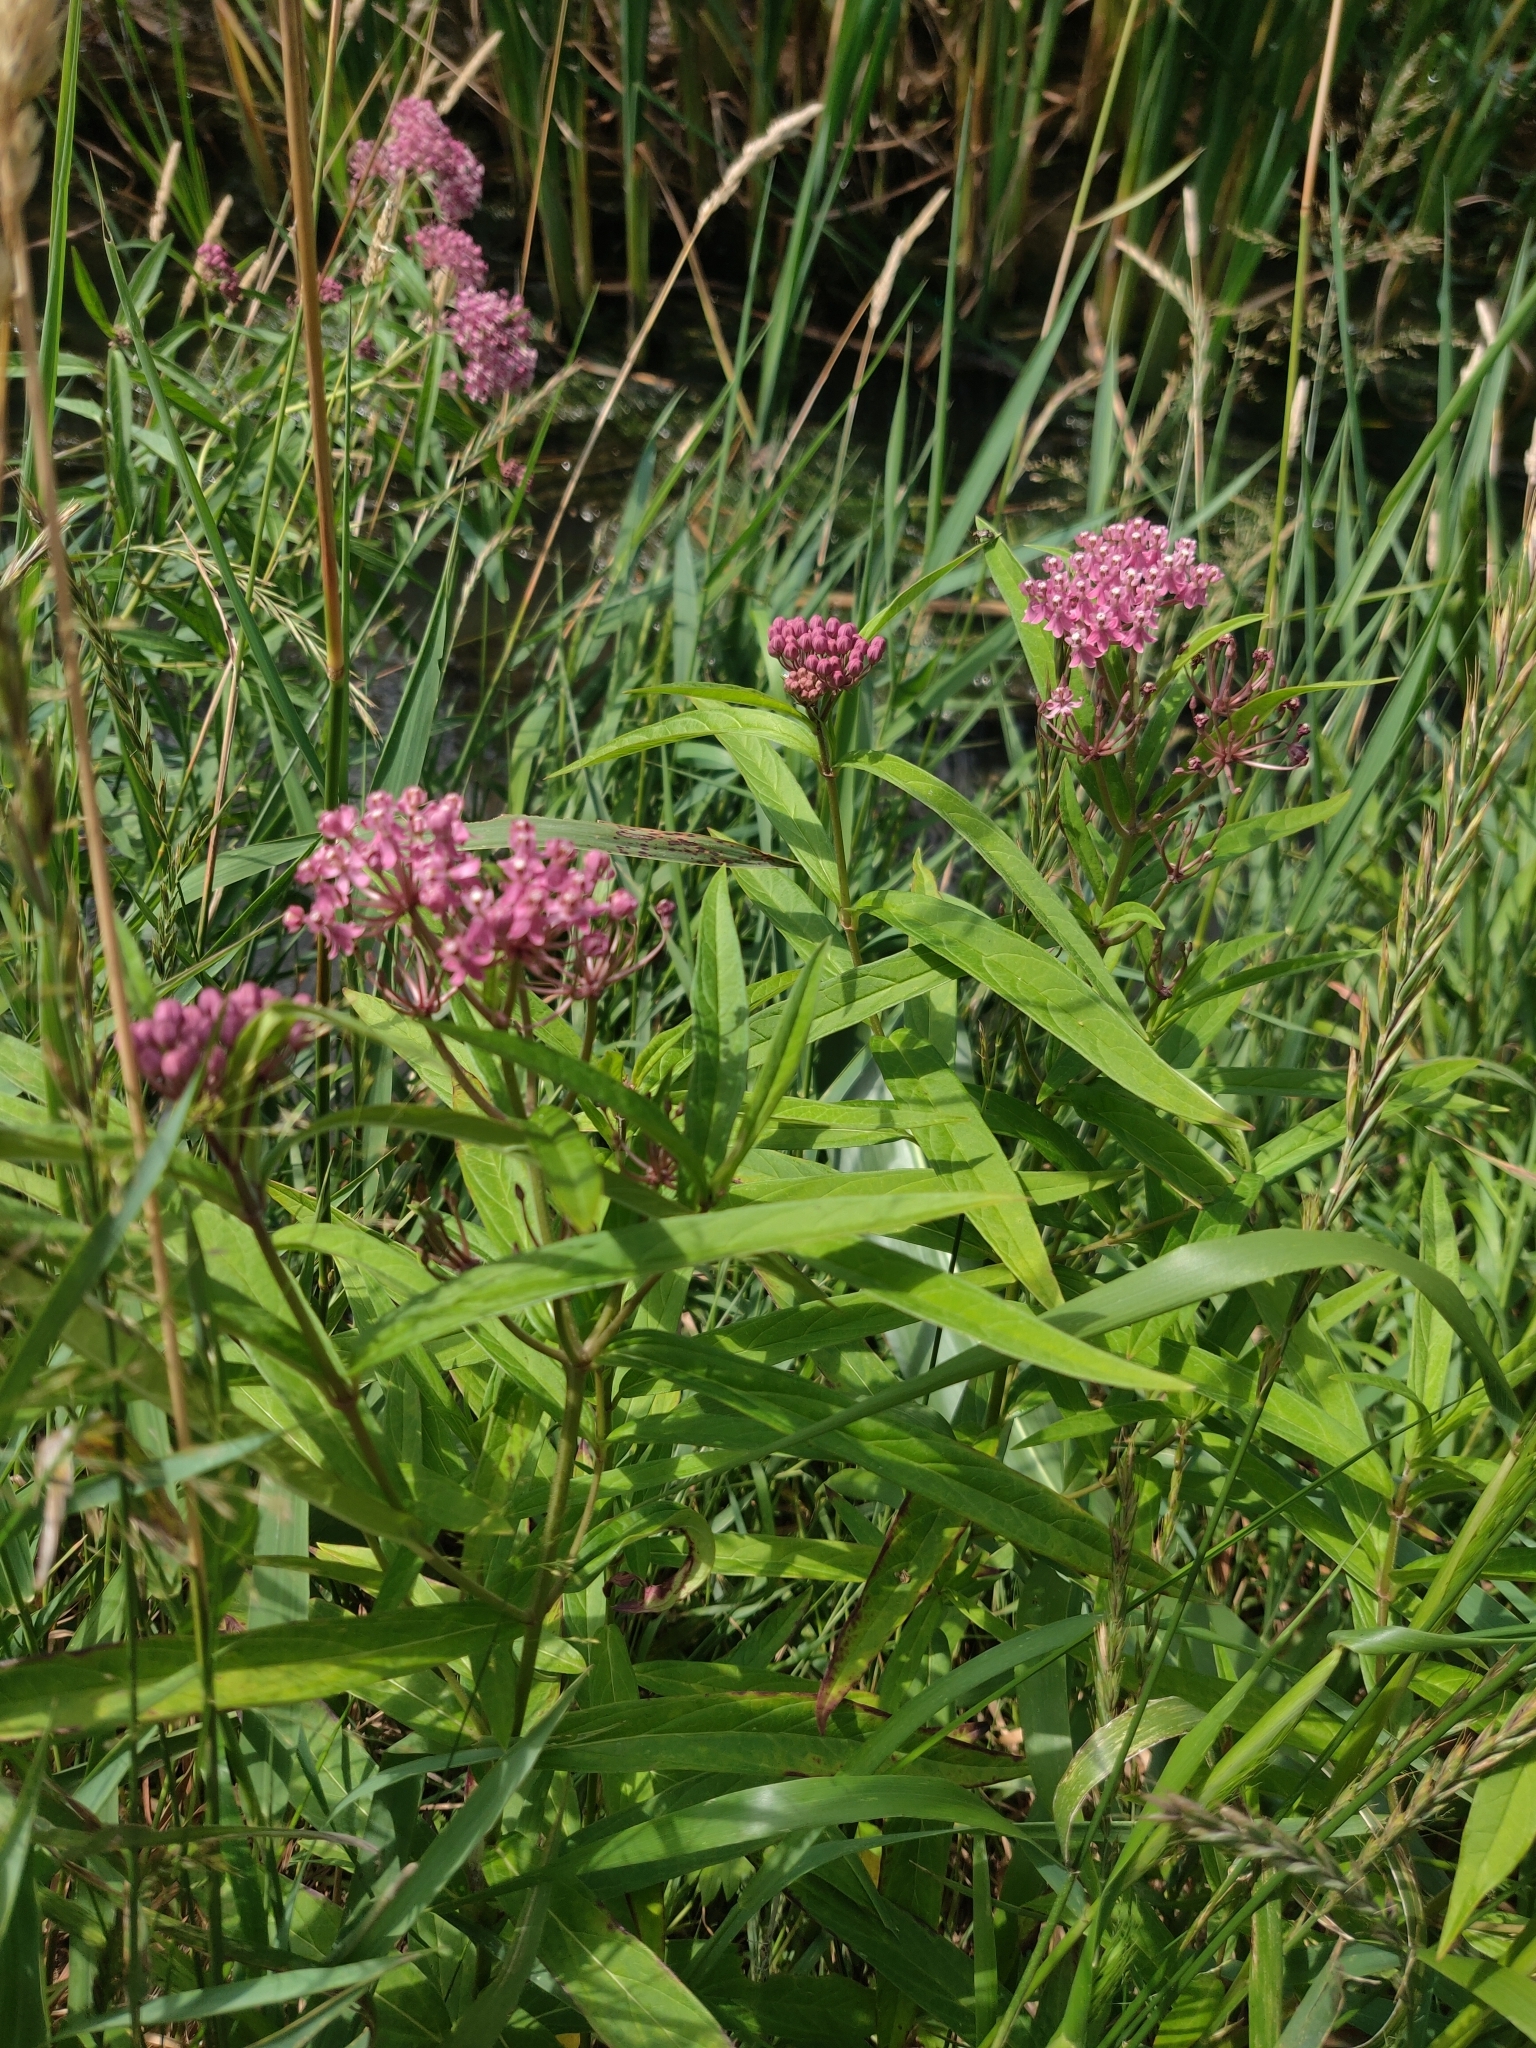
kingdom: Plantae
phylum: Tracheophyta
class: Magnoliopsida
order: Gentianales
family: Apocynaceae
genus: Asclepias
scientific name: Asclepias incarnata
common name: Swamp milkweed
